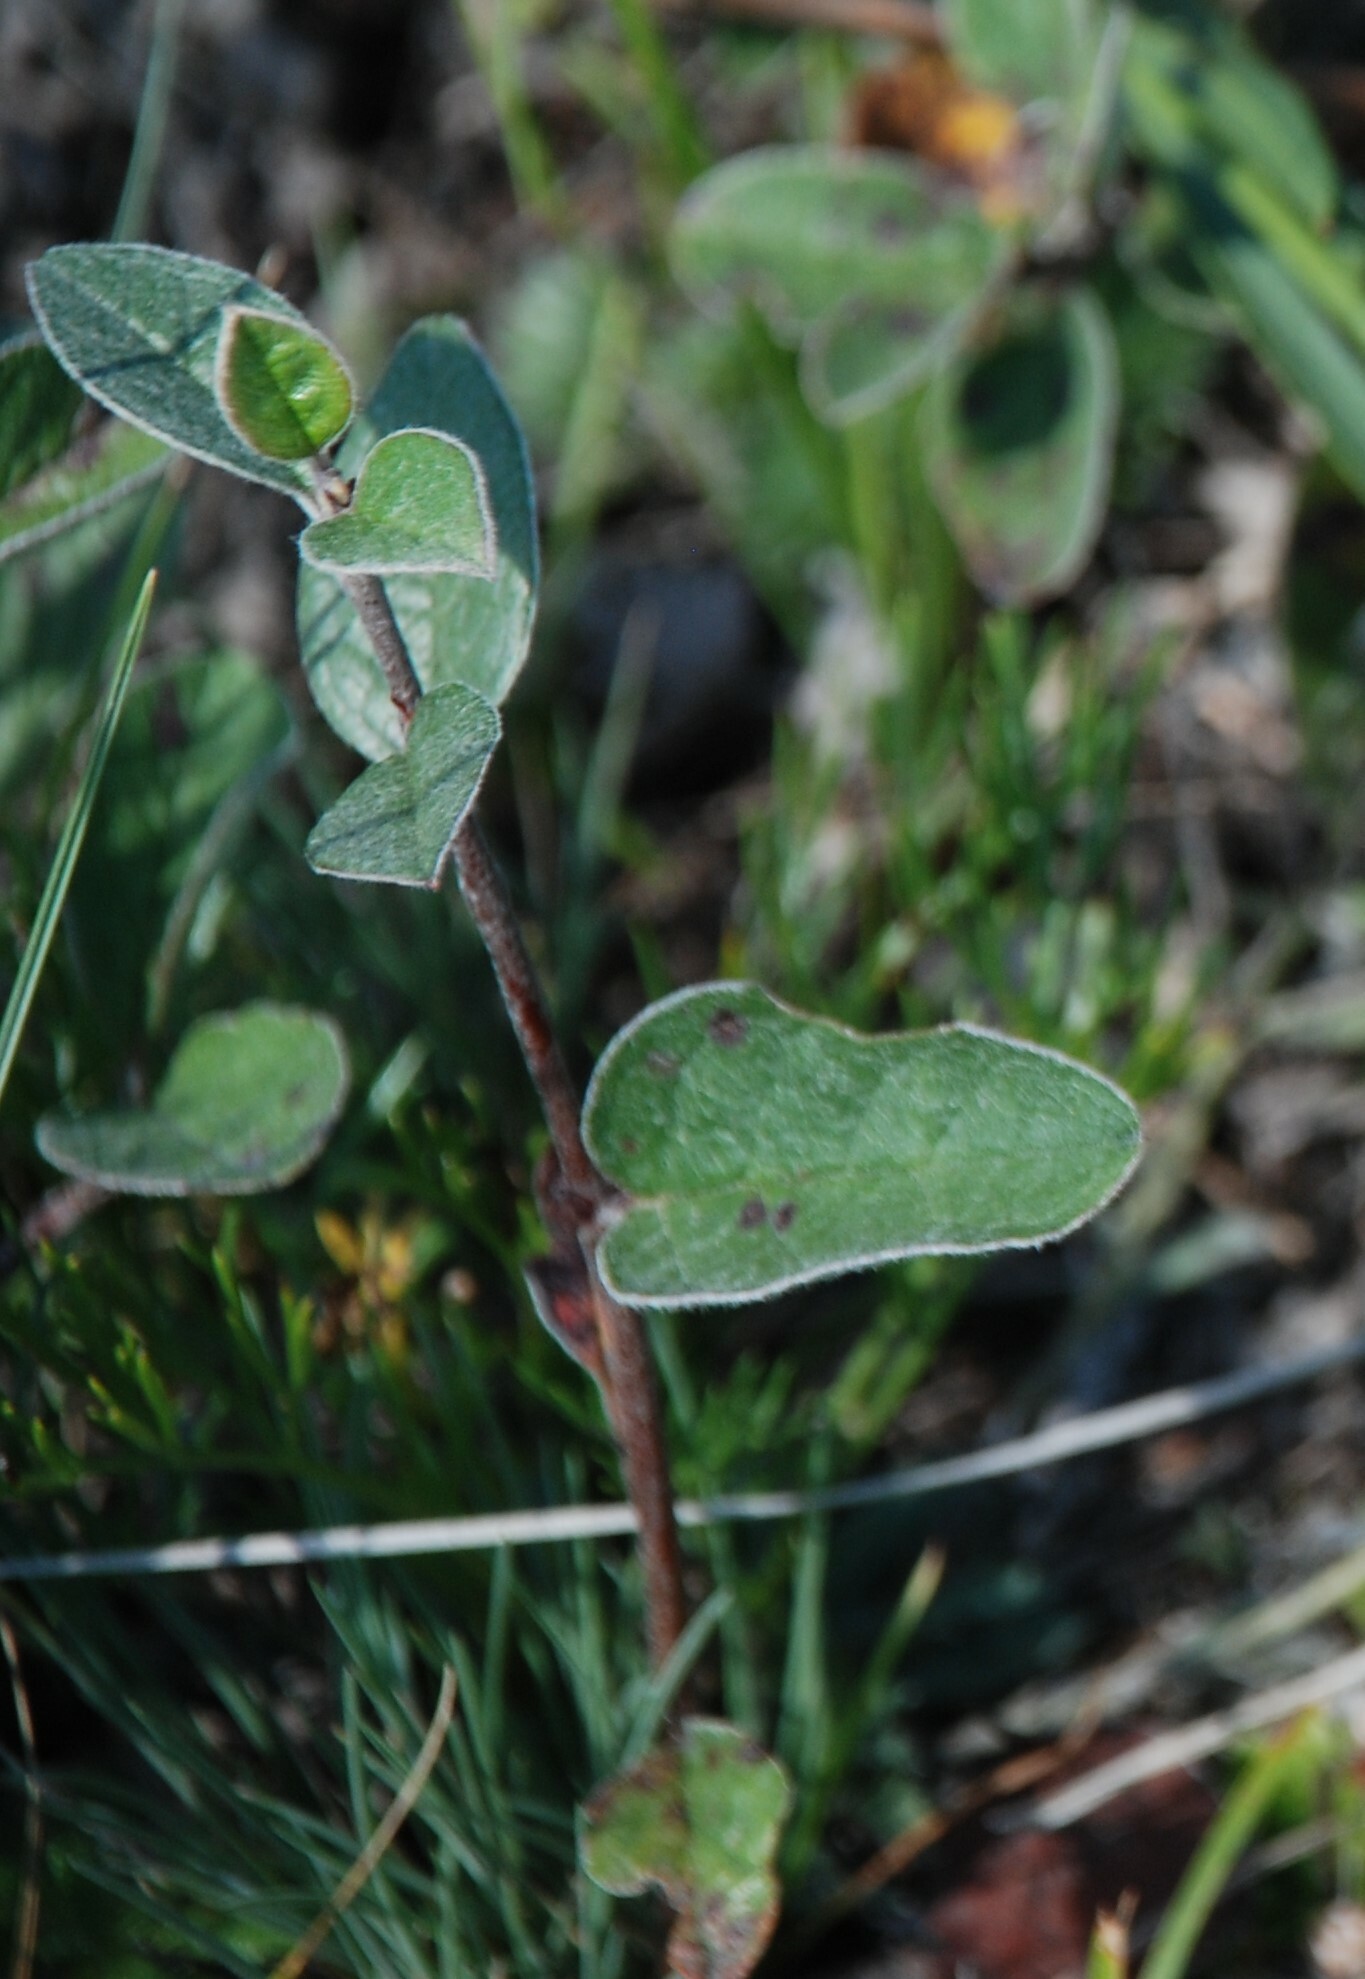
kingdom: Plantae
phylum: Tracheophyta
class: Magnoliopsida
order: Rosales
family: Rosaceae
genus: Cotoneaster
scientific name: Cotoneaster melanocarpus
